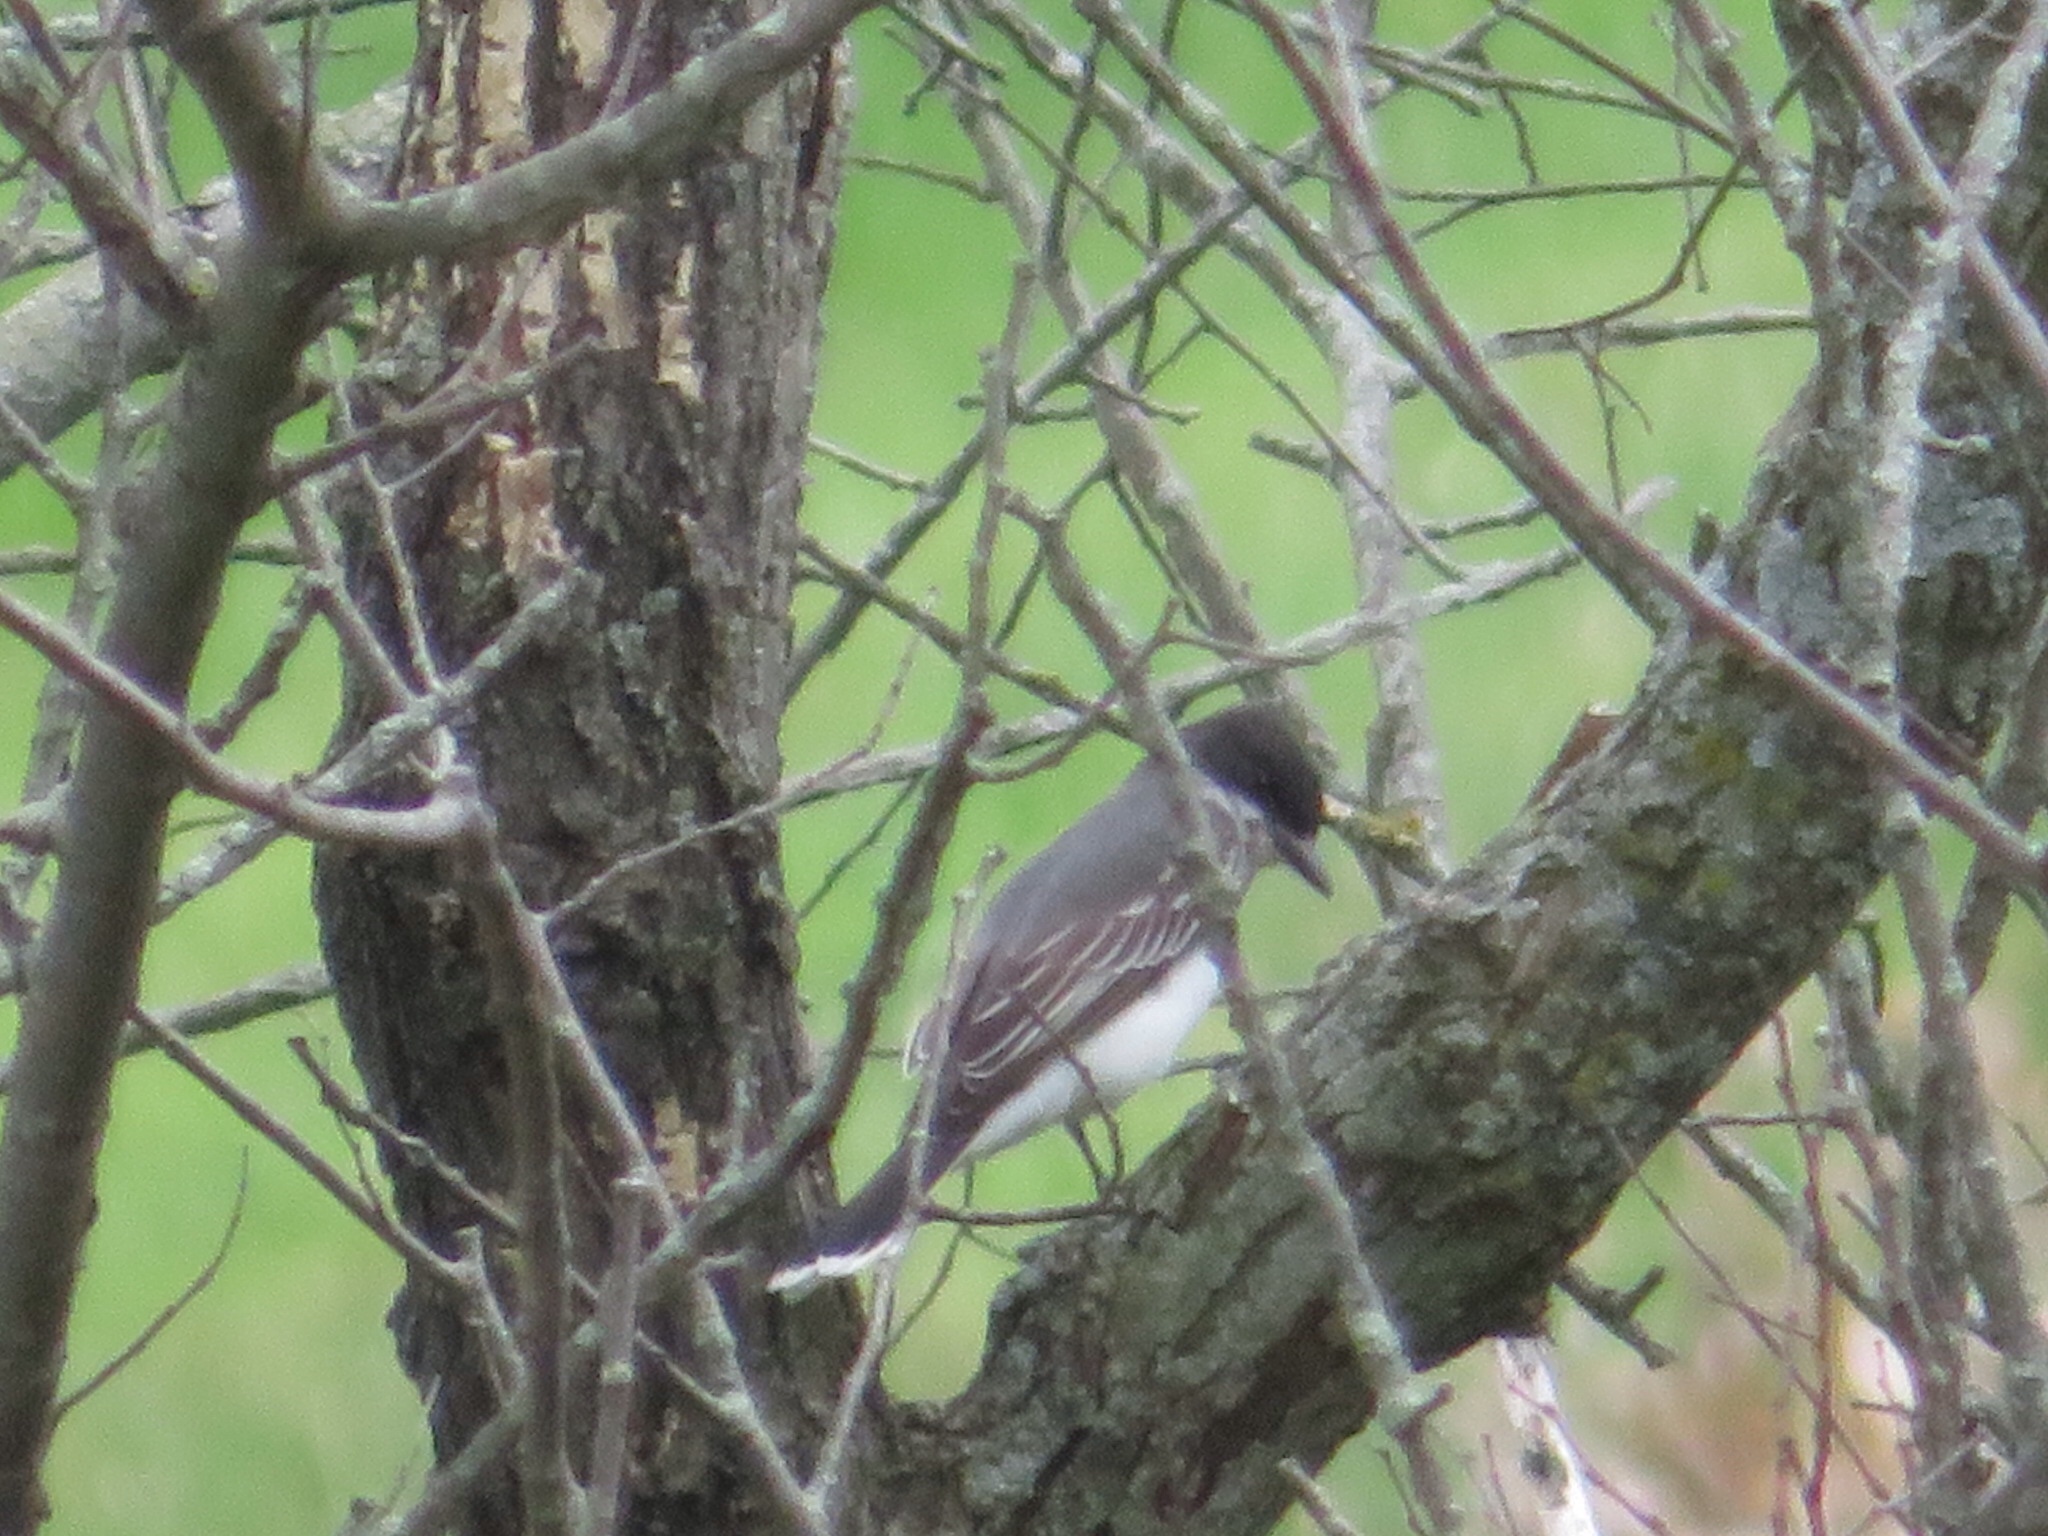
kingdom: Animalia
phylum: Chordata
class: Aves
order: Passeriformes
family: Tyrannidae
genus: Tyrannus
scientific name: Tyrannus tyrannus
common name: Eastern kingbird
